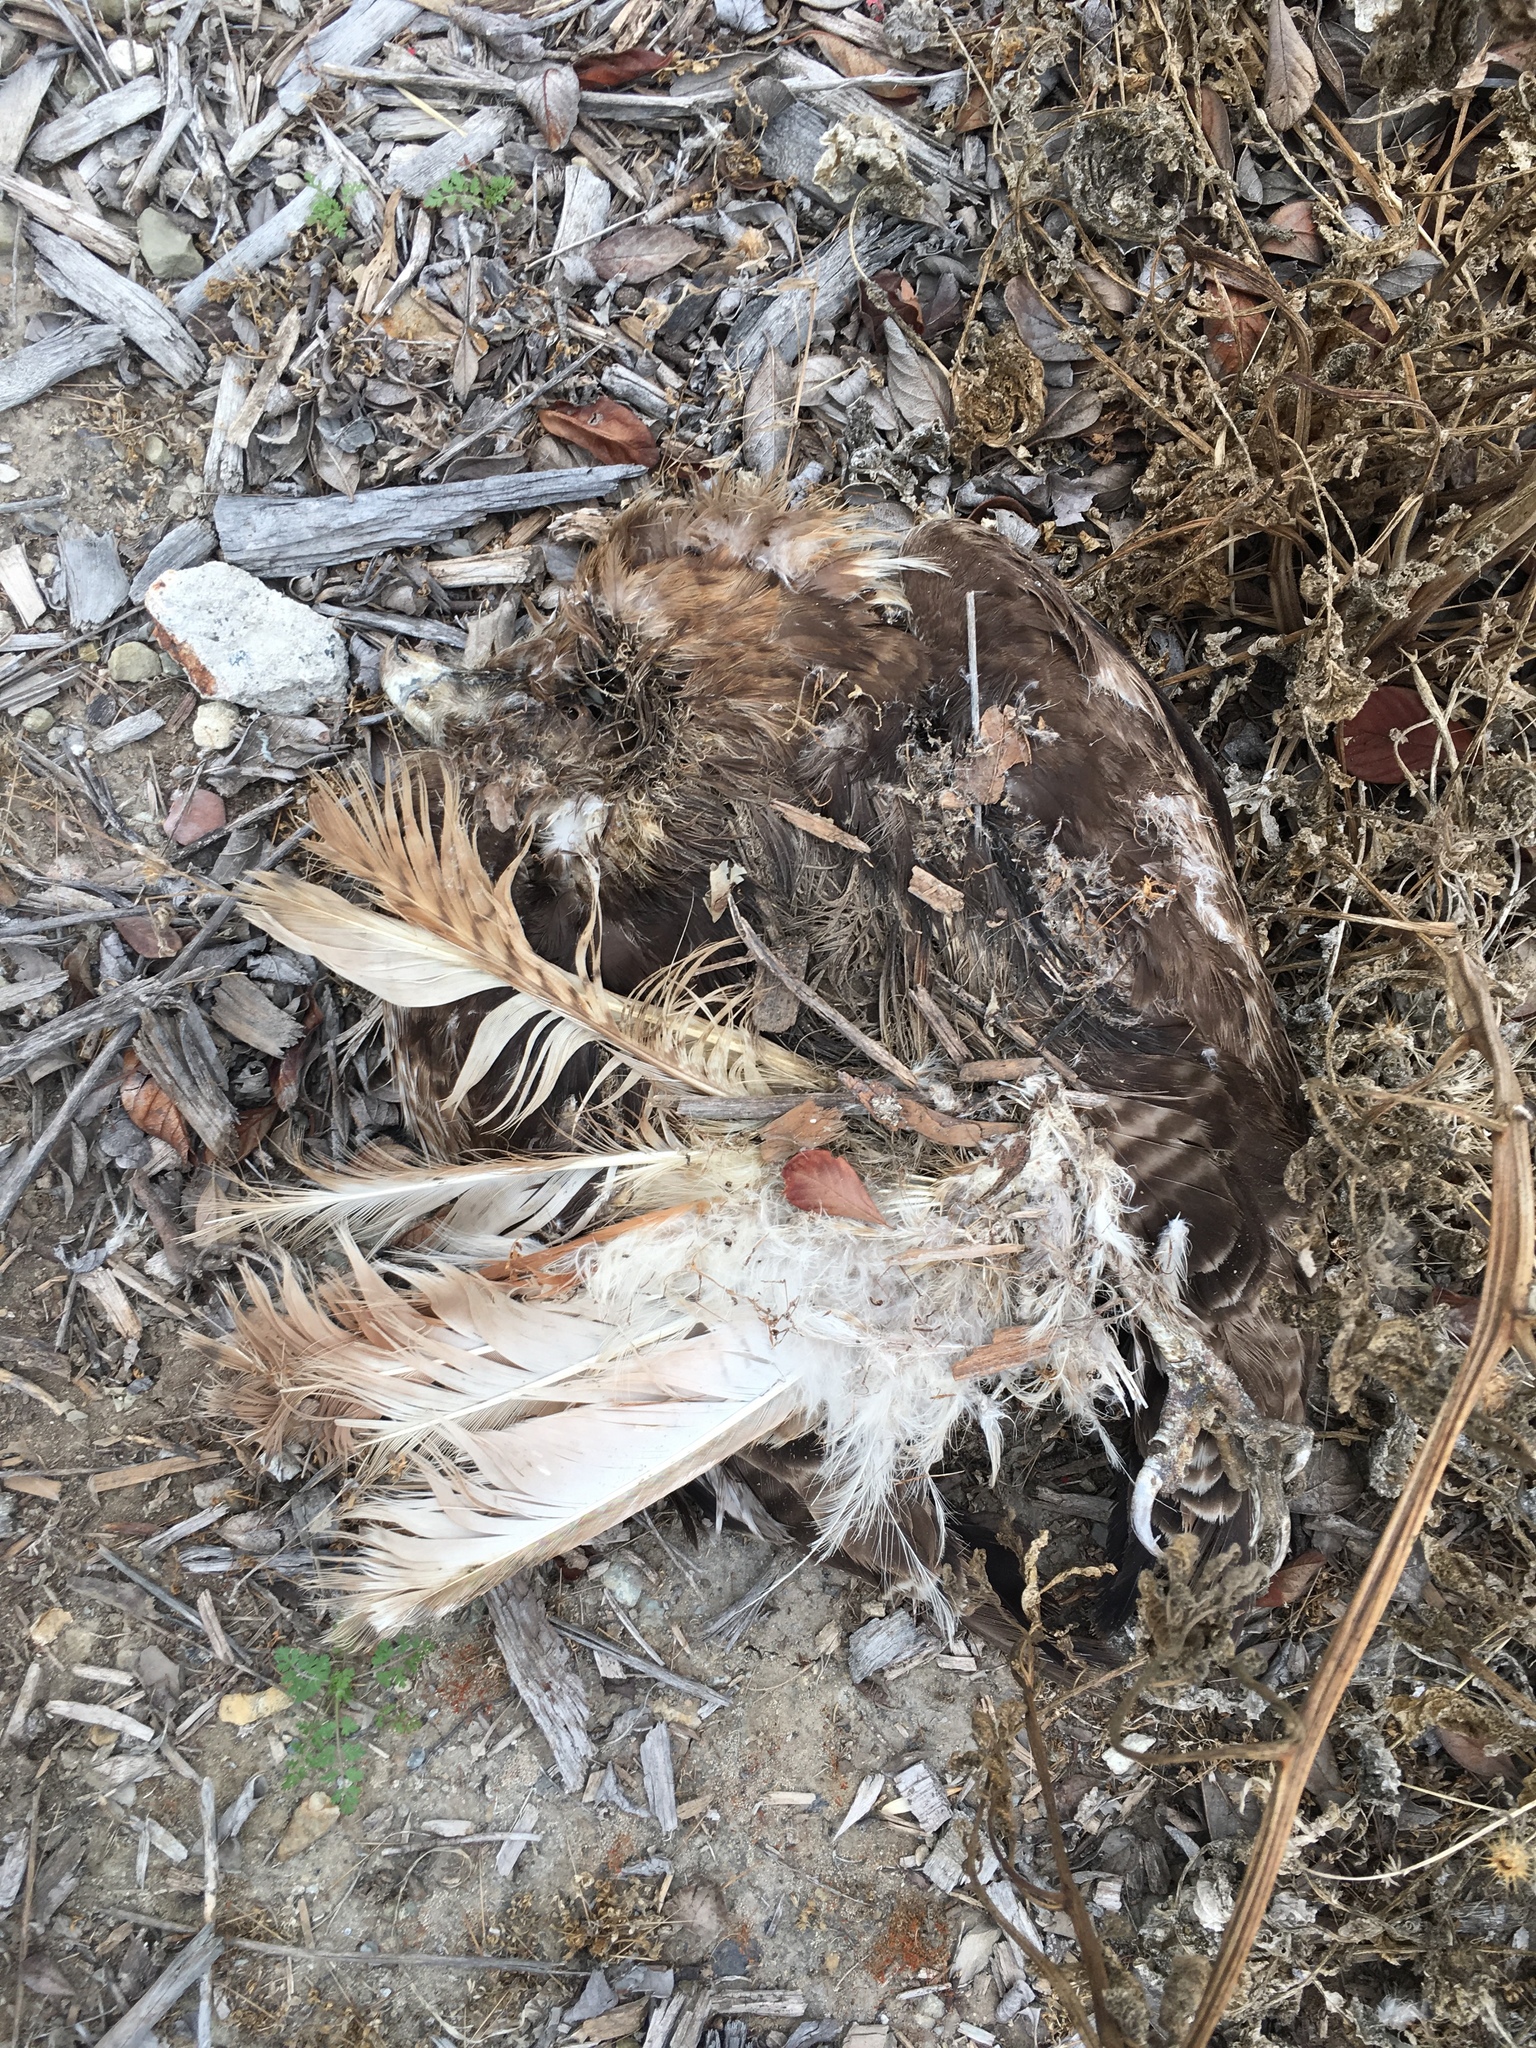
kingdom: Animalia
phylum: Chordata
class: Aves
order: Accipitriformes
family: Accipitridae
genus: Buteo
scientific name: Buteo jamaicensis
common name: Red-tailed hawk
